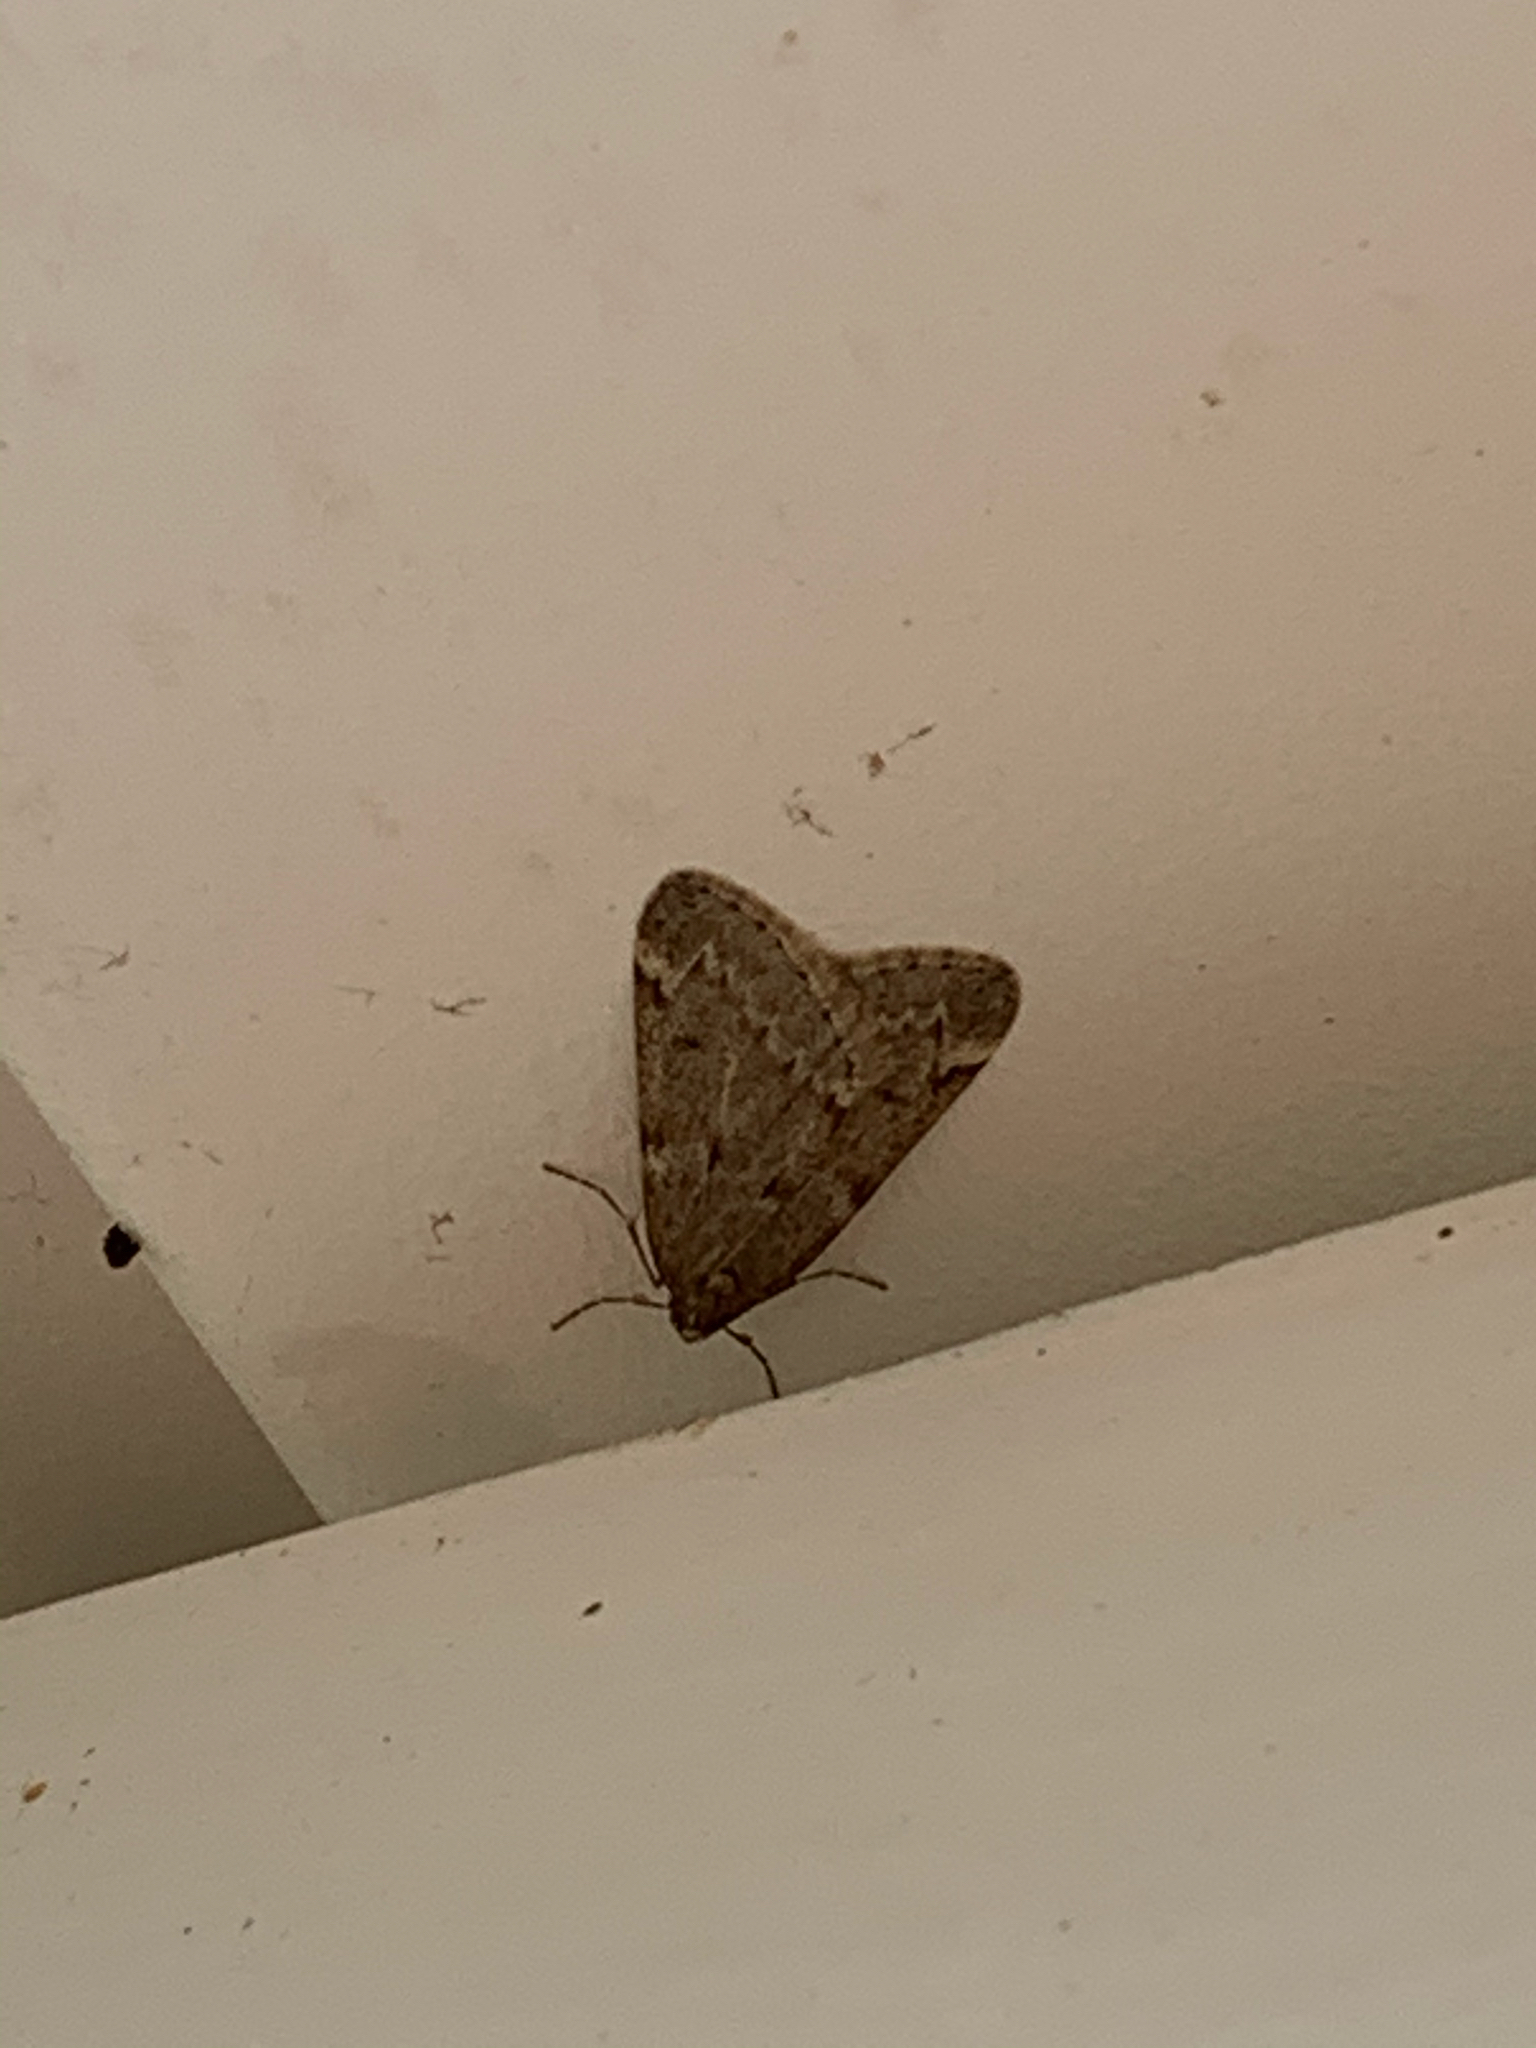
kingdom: Animalia
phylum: Arthropoda
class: Insecta
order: Lepidoptera
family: Geometridae
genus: Alsophila
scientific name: Alsophila pometaria
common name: Fall cankerworm
